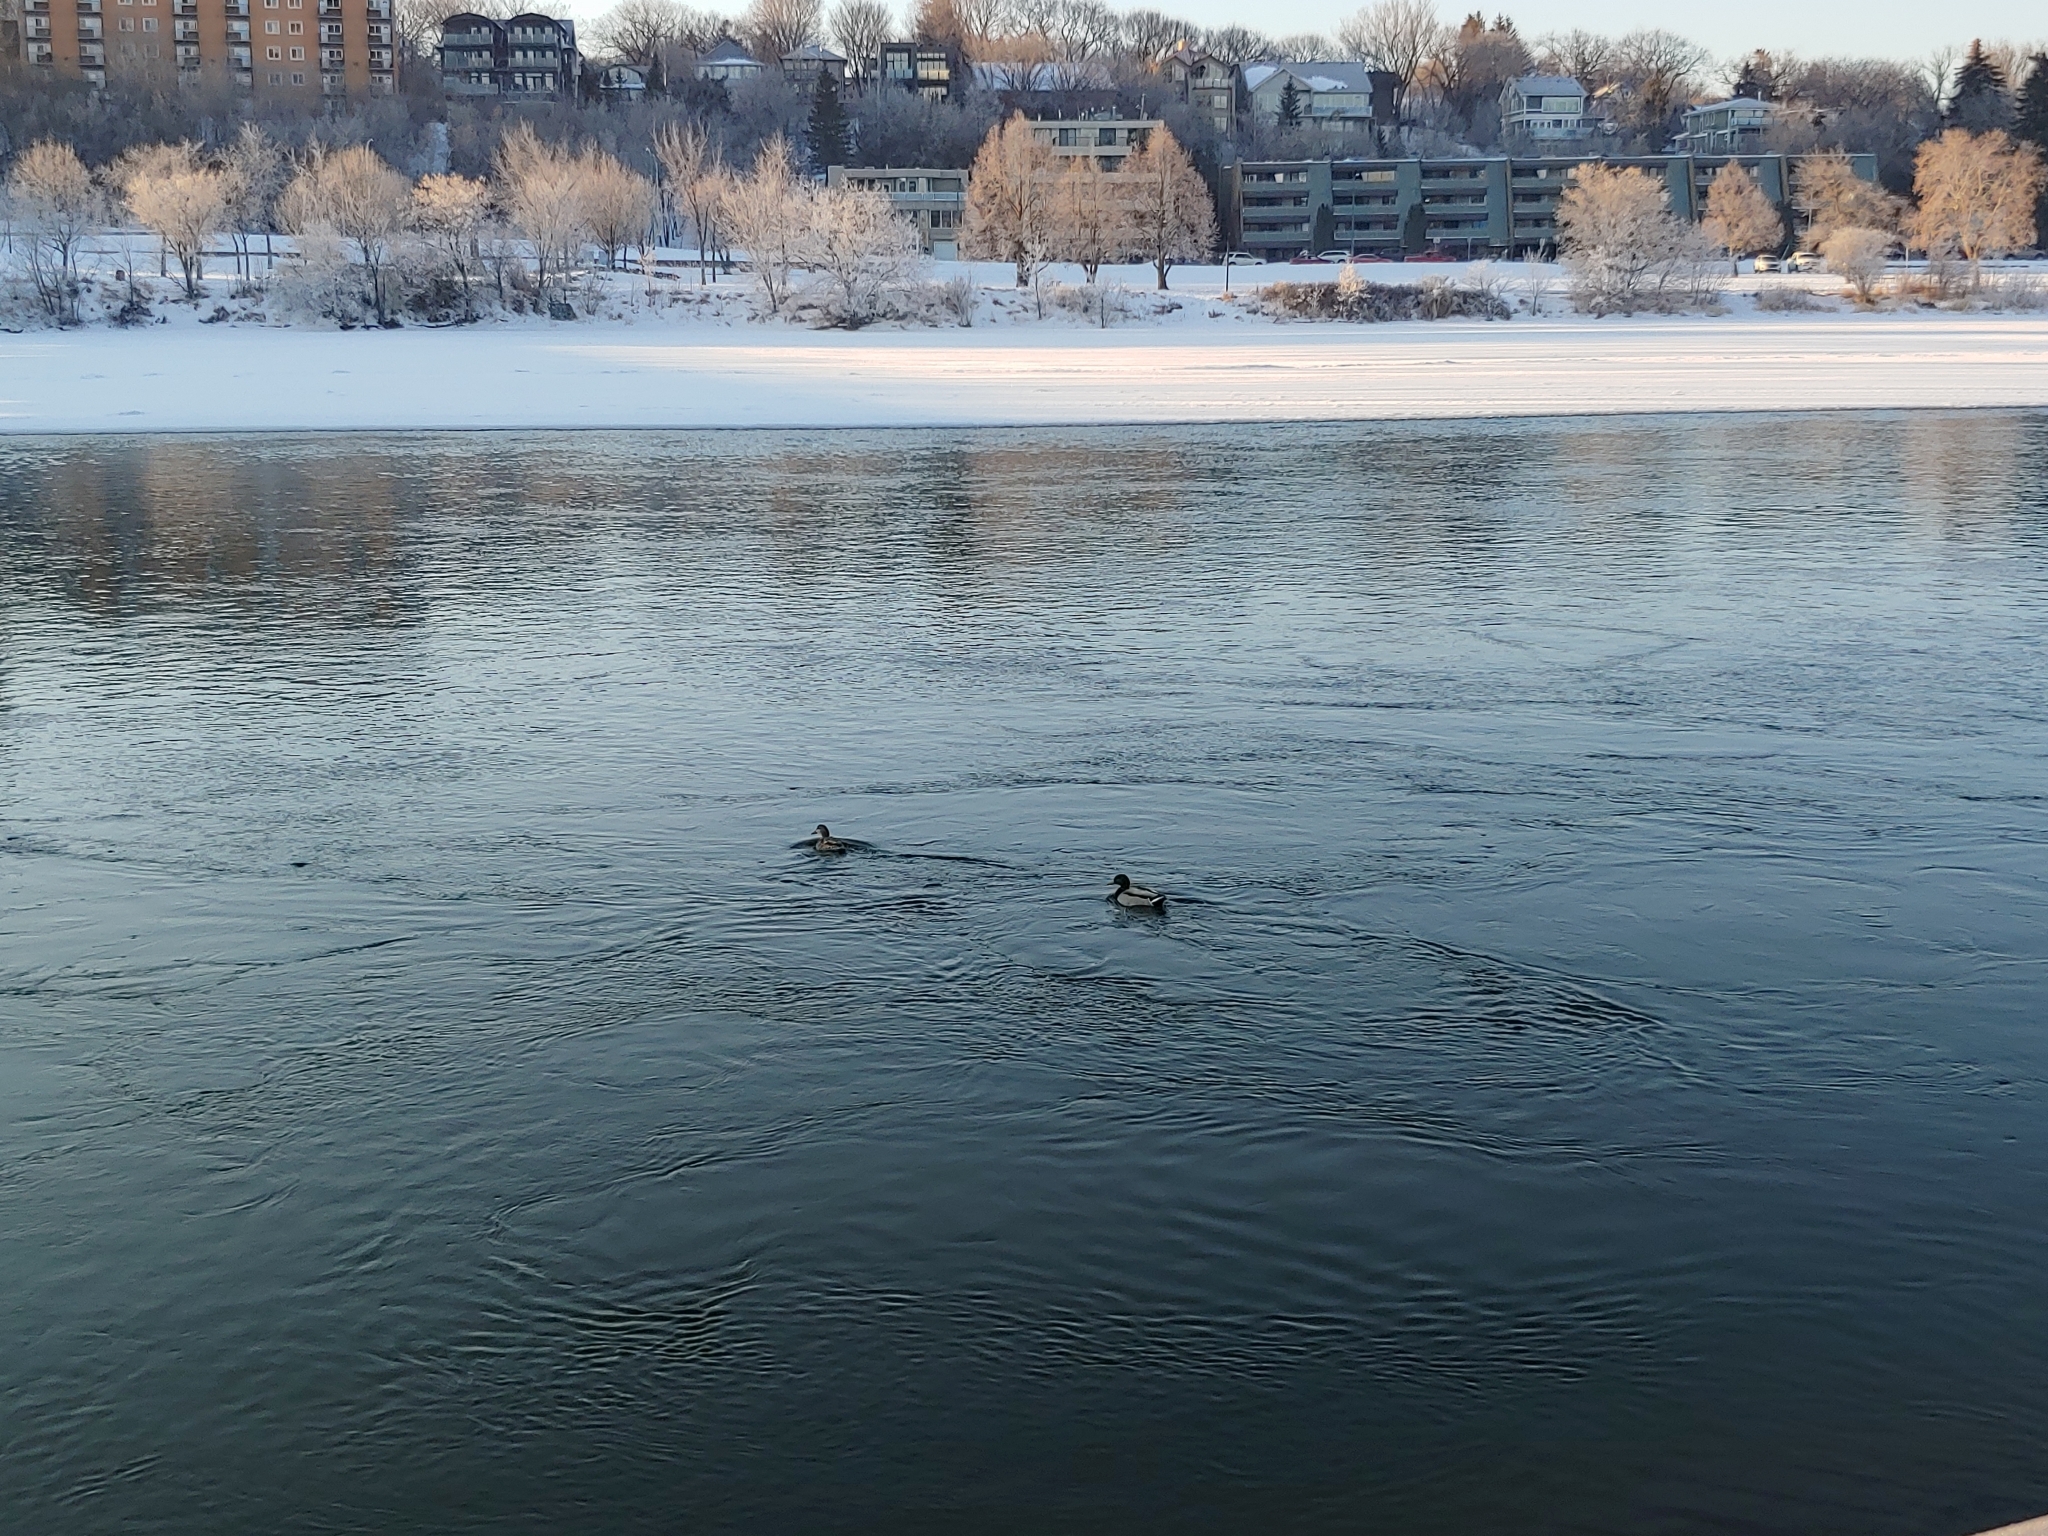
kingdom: Animalia
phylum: Chordata
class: Aves
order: Anseriformes
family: Anatidae
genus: Anas
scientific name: Anas platyrhynchos
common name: Mallard
